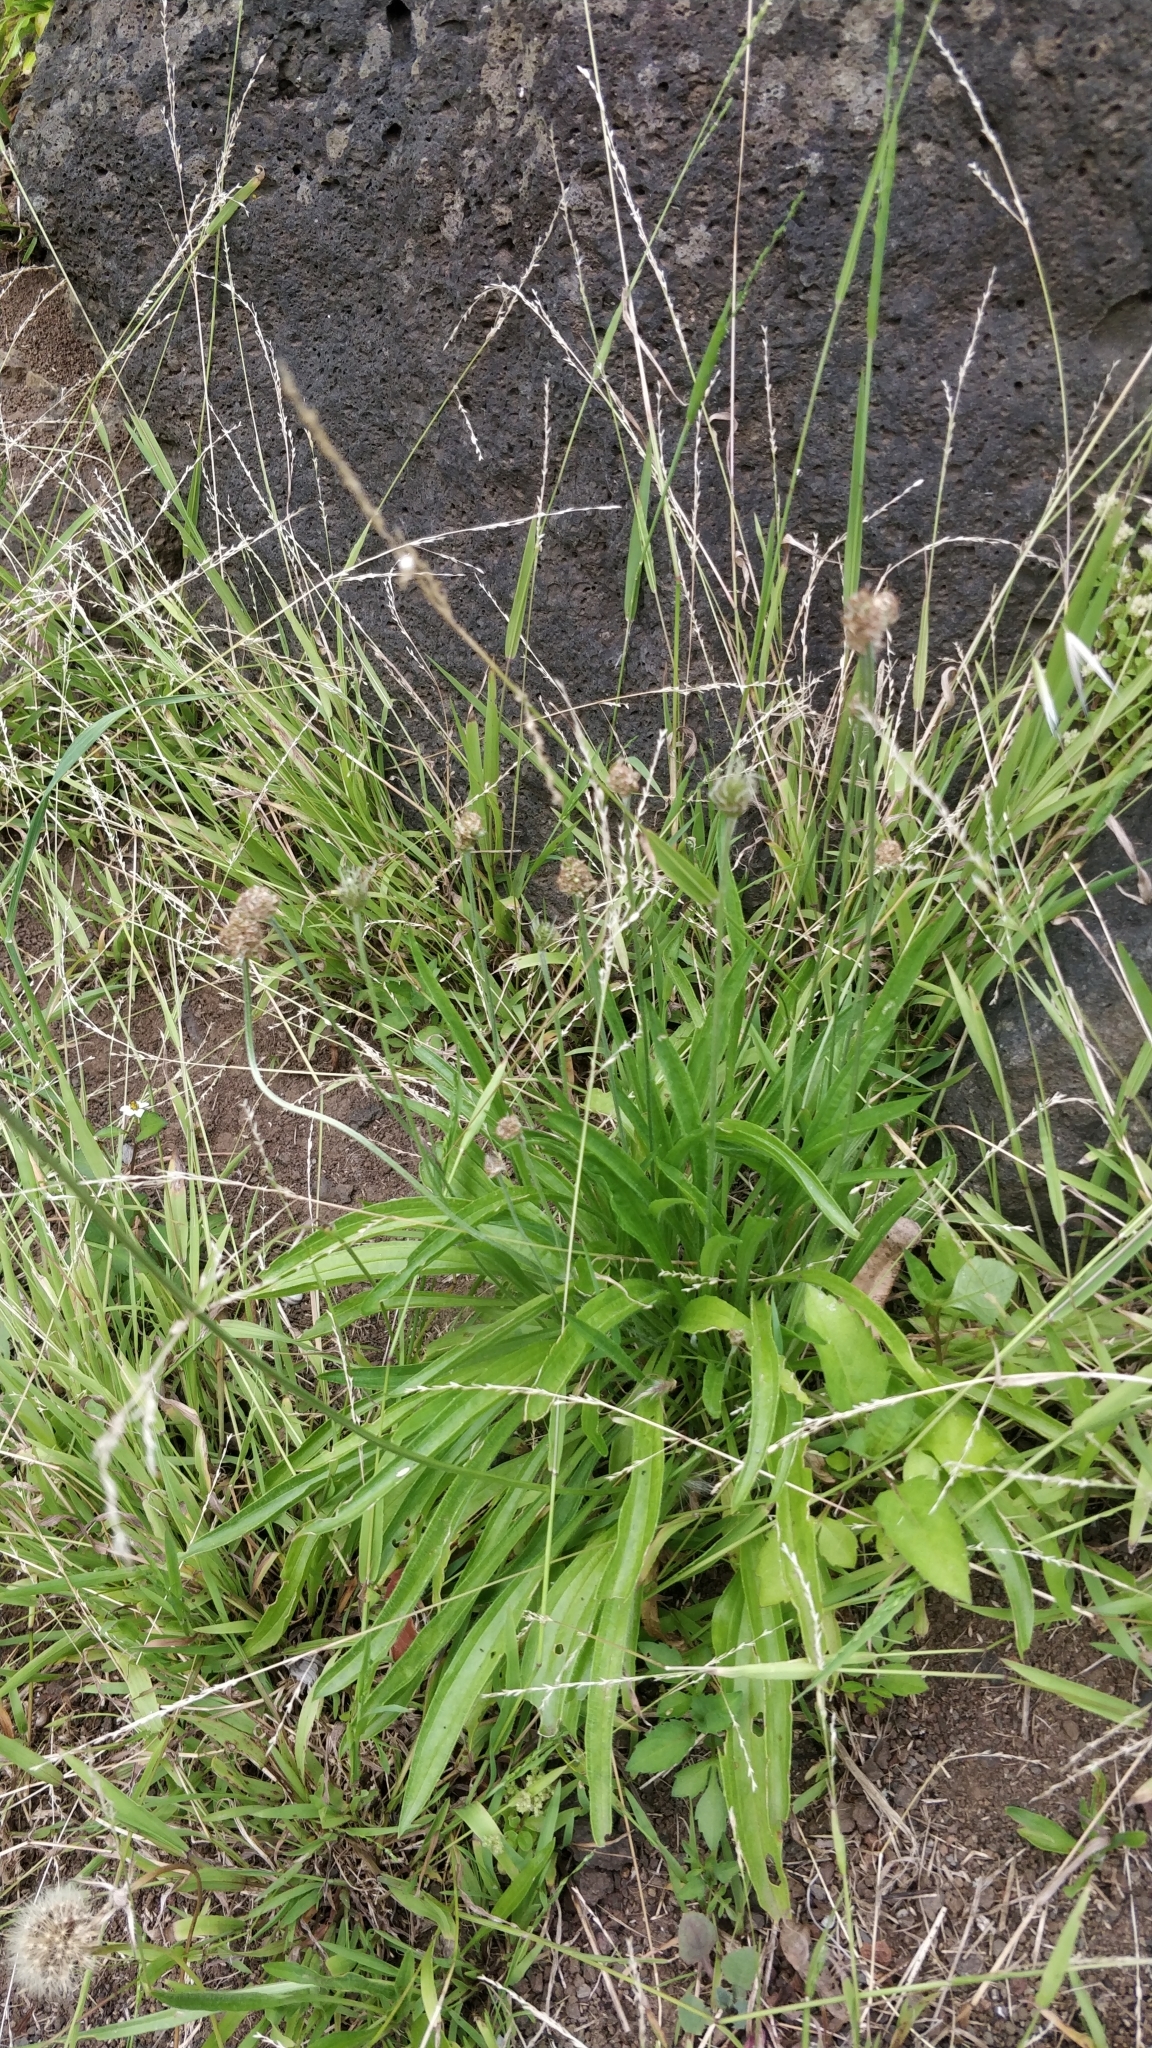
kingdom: Plantae
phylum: Tracheophyta
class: Magnoliopsida
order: Lamiales
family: Plantaginaceae
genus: Plantago
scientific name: Plantago lanceolata
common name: Ribwort plantain
